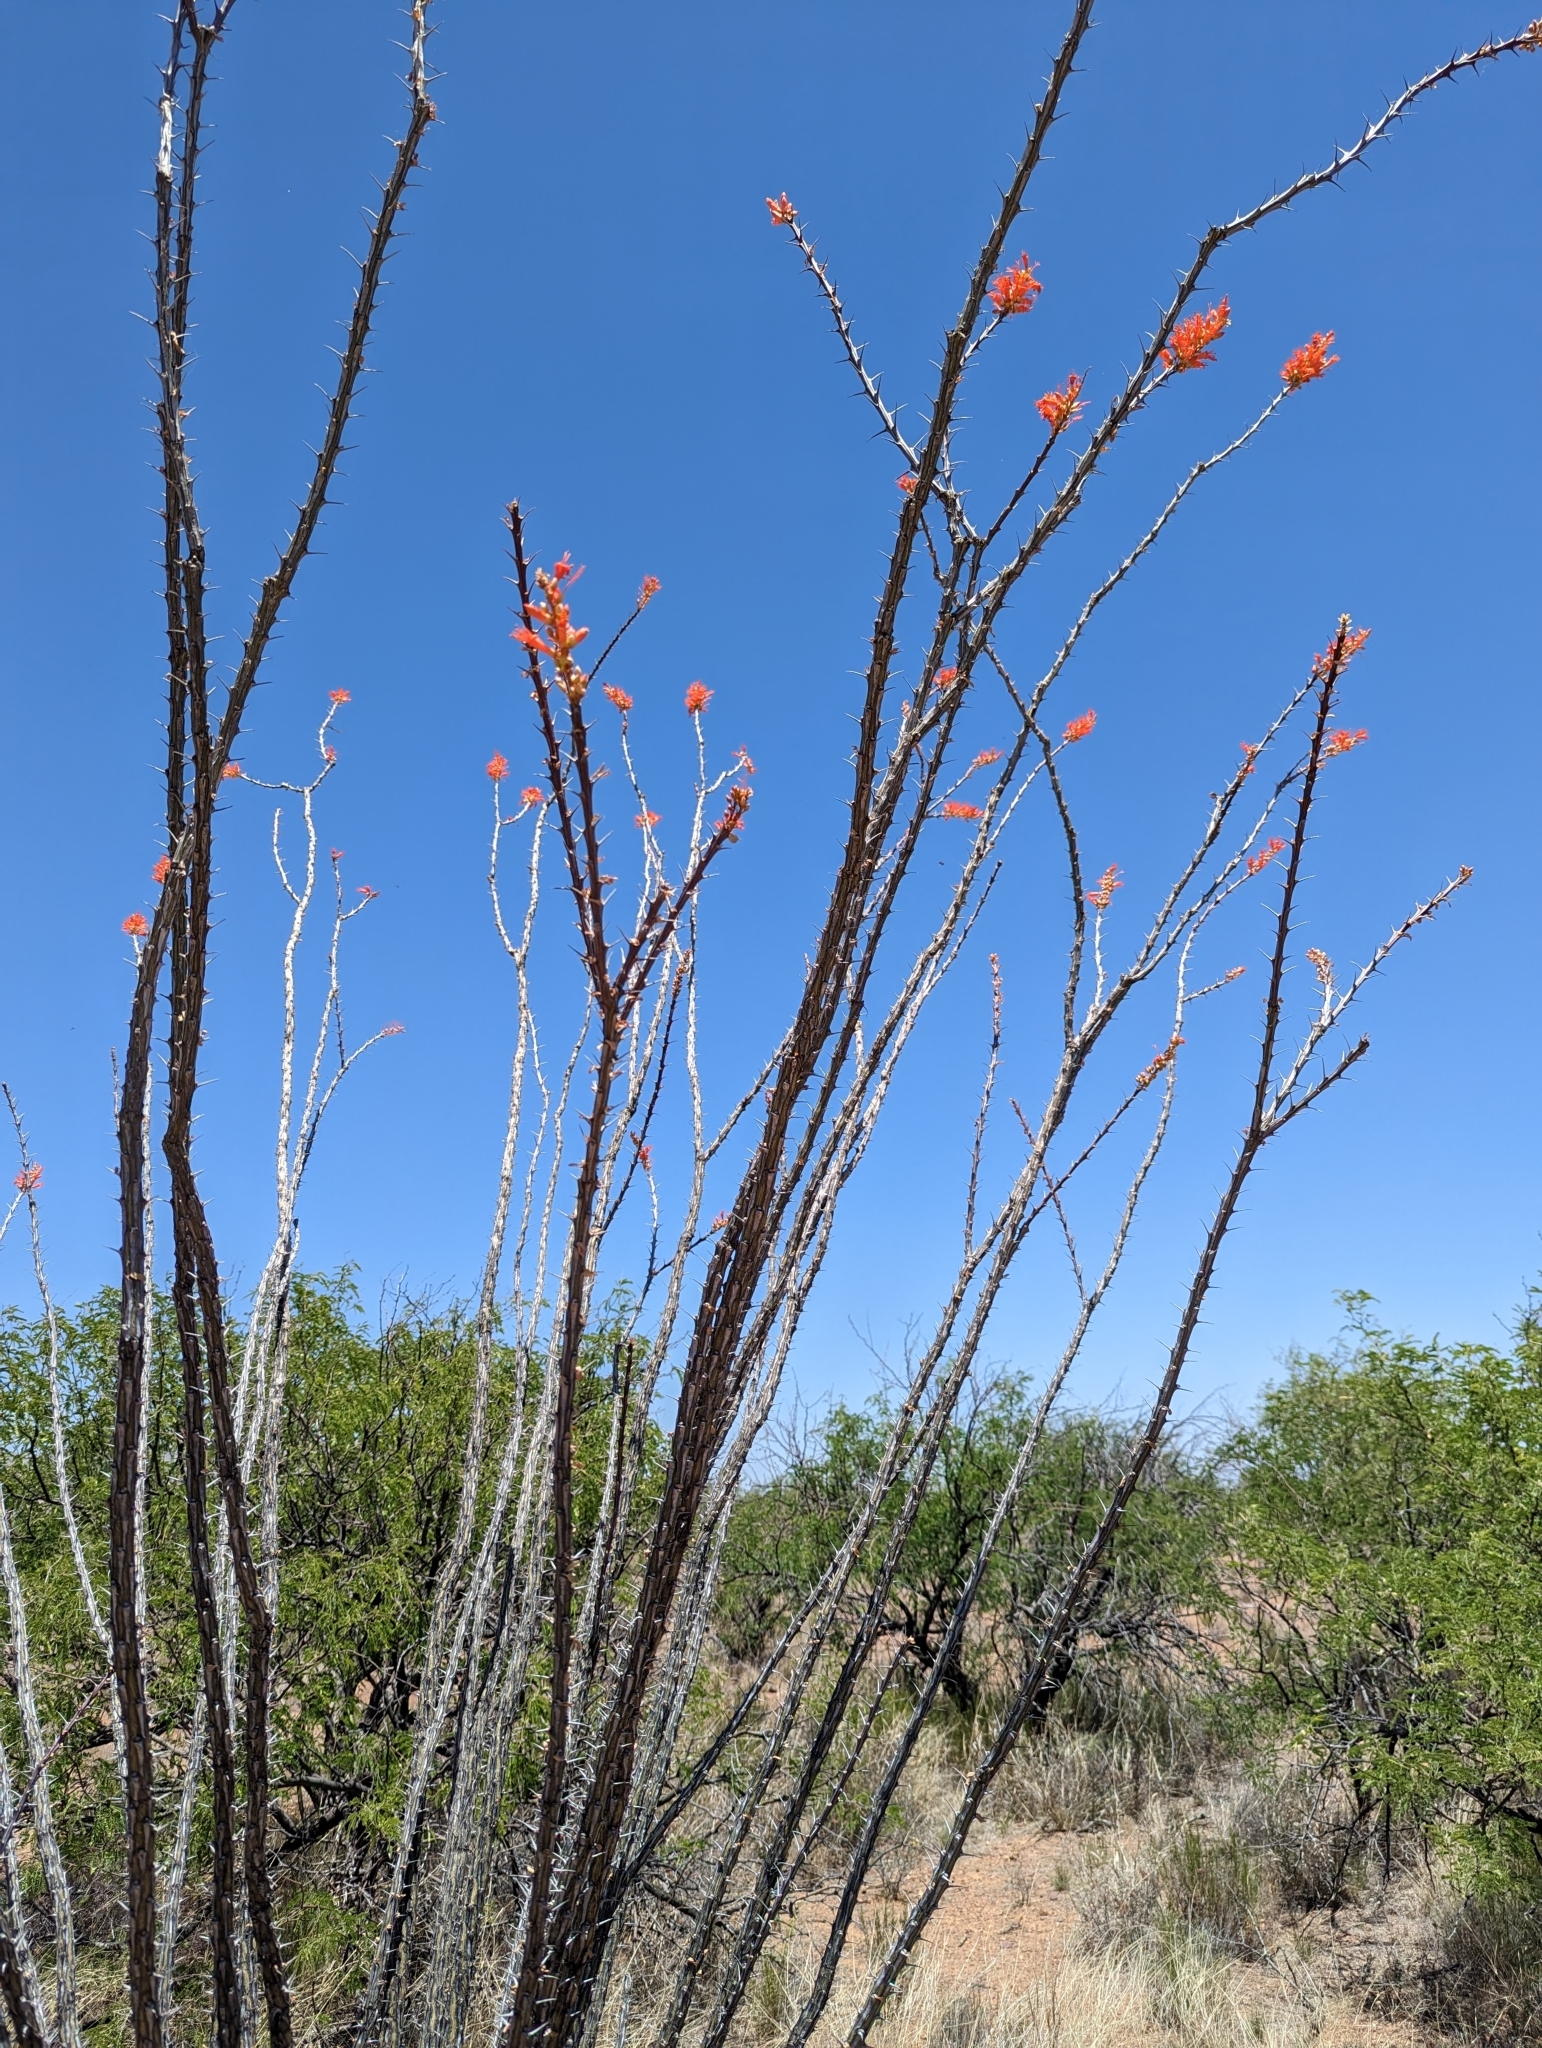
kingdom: Plantae
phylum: Tracheophyta
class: Magnoliopsida
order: Ericales
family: Fouquieriaceae
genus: Fouquieria
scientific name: Fouquieria splendens
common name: Vine-cactus
